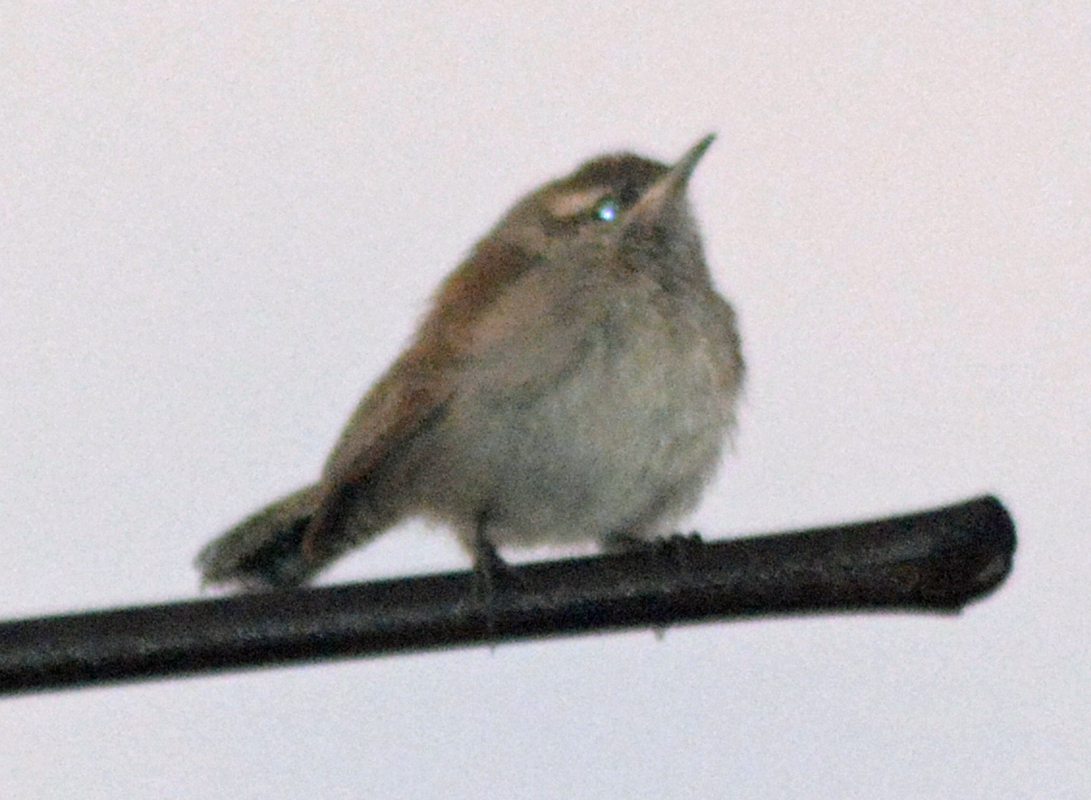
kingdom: Animalia
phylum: Chordata
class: Aves
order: Passeriformes
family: Troglodytidae
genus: Thryomanes
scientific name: Thryomanes bewickii
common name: Bewick's wren
